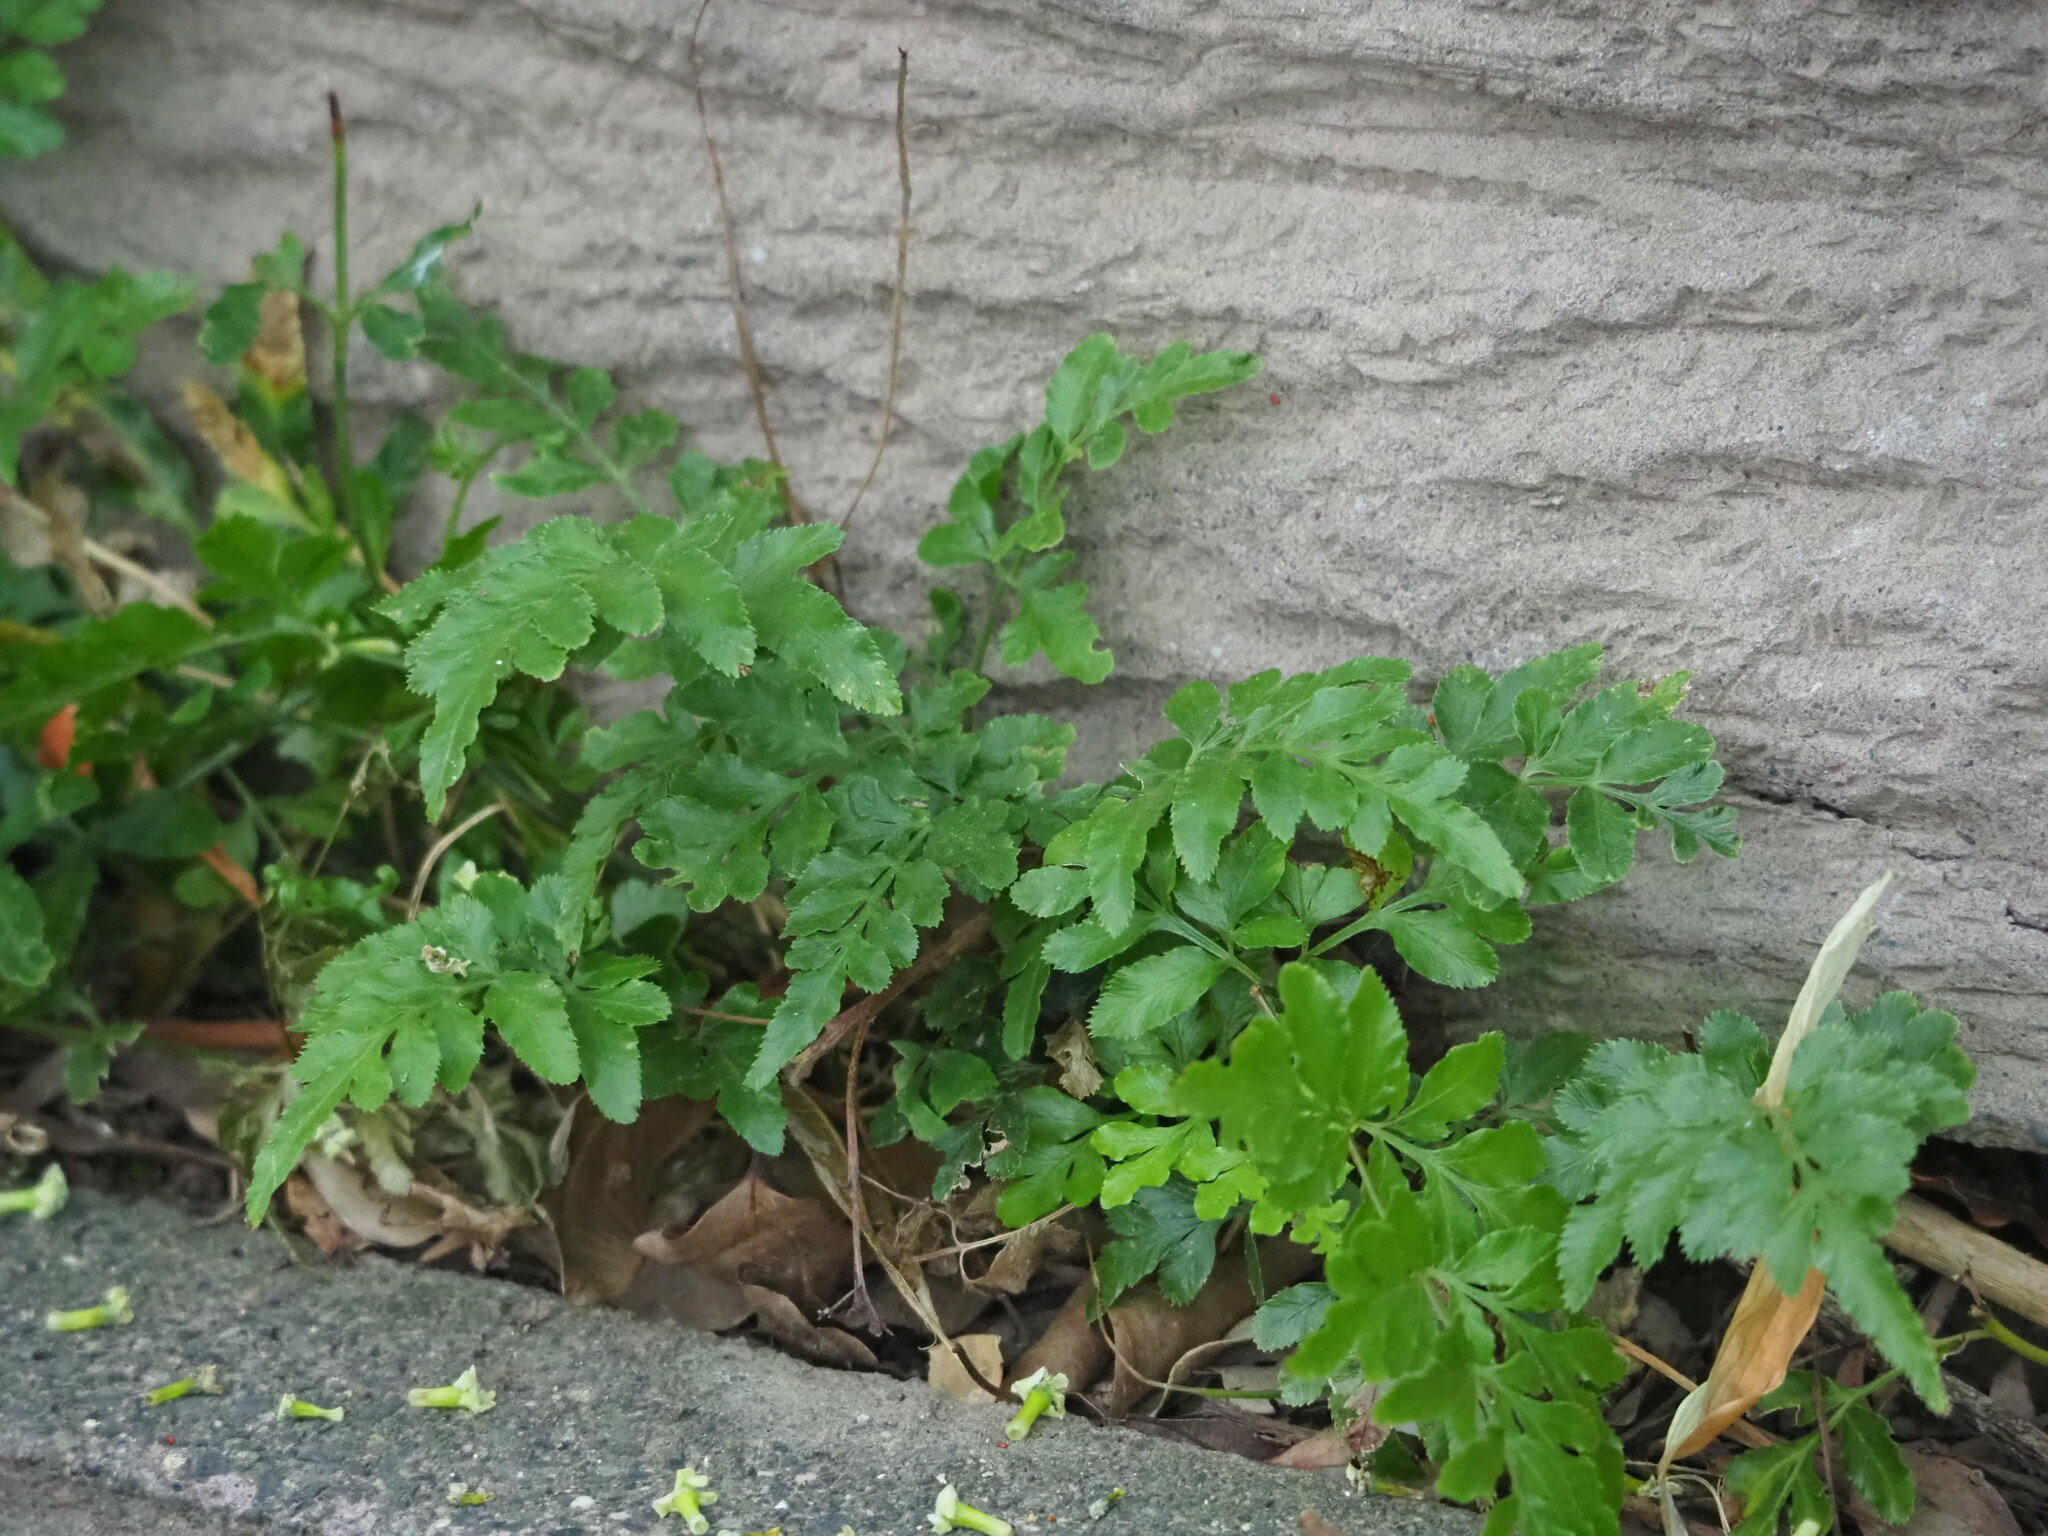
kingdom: Plantae
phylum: Tracheophyta
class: Polypodiopsida
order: Polypodiales
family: Pteridaceae
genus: Pteris
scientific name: Pteris ensiformis
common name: Sword brake
